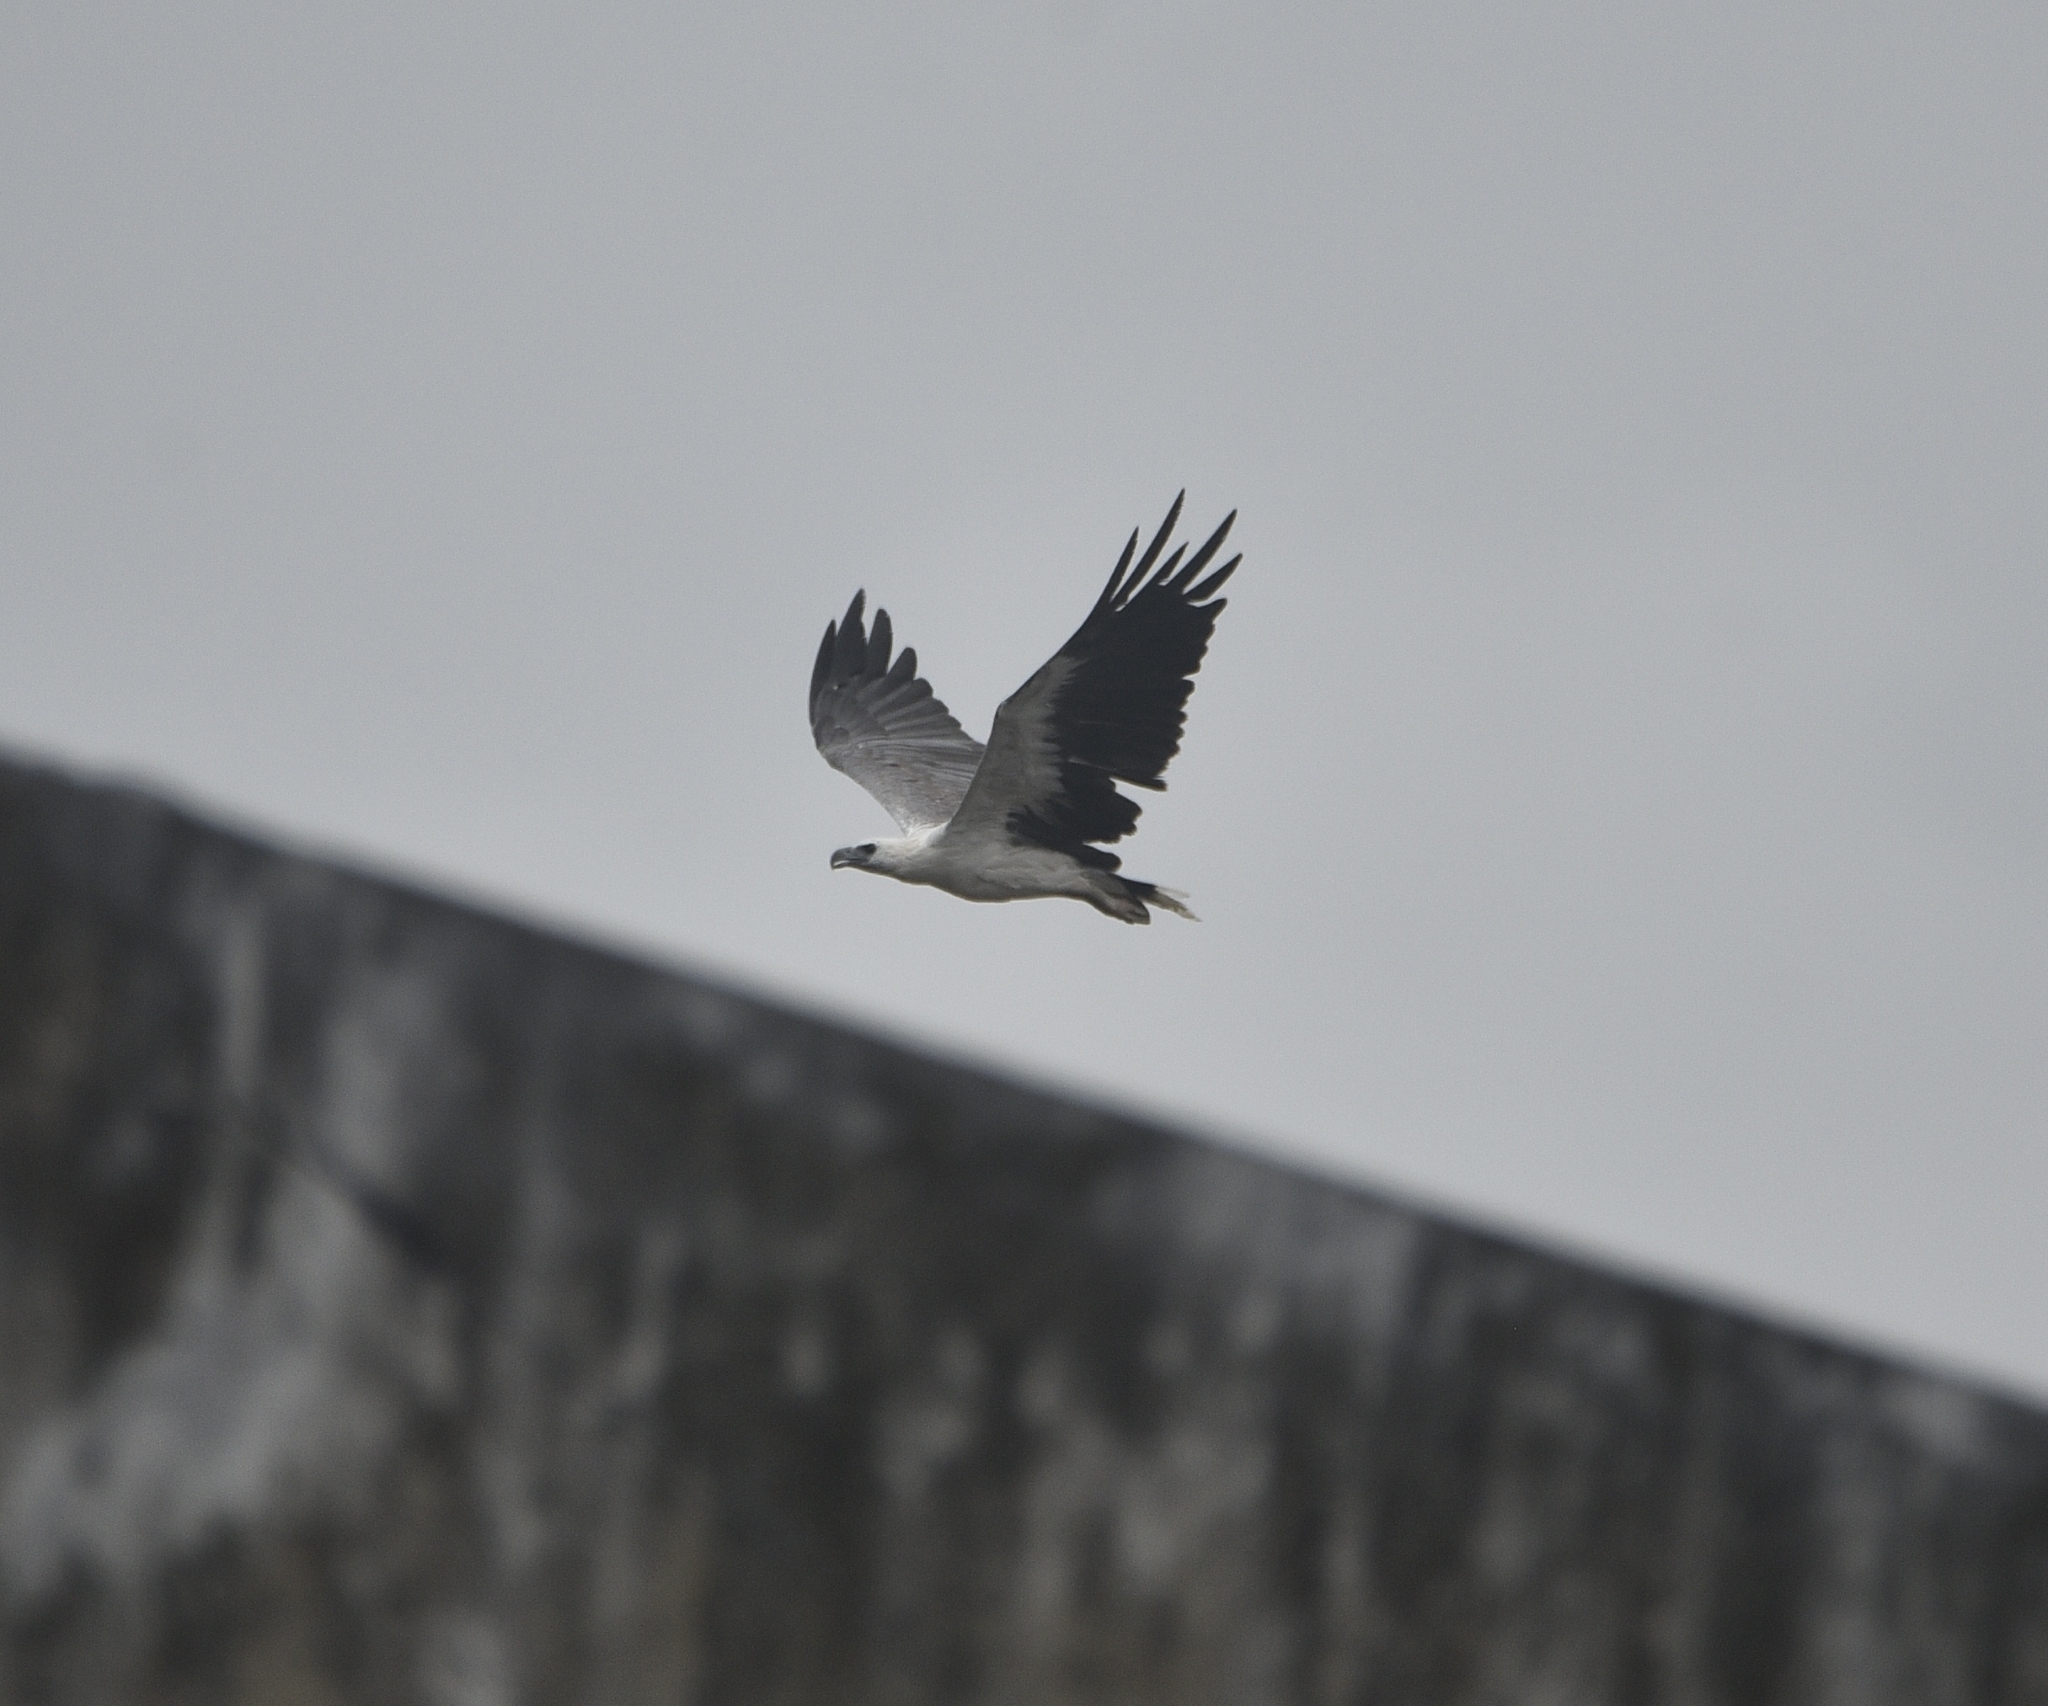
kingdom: Animalia
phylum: Chordata
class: Aves
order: Accipitriformes
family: Accipitridae
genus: Haliaeetus
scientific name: Haliaeetus leucogaster
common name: White-bellied sea eagle
